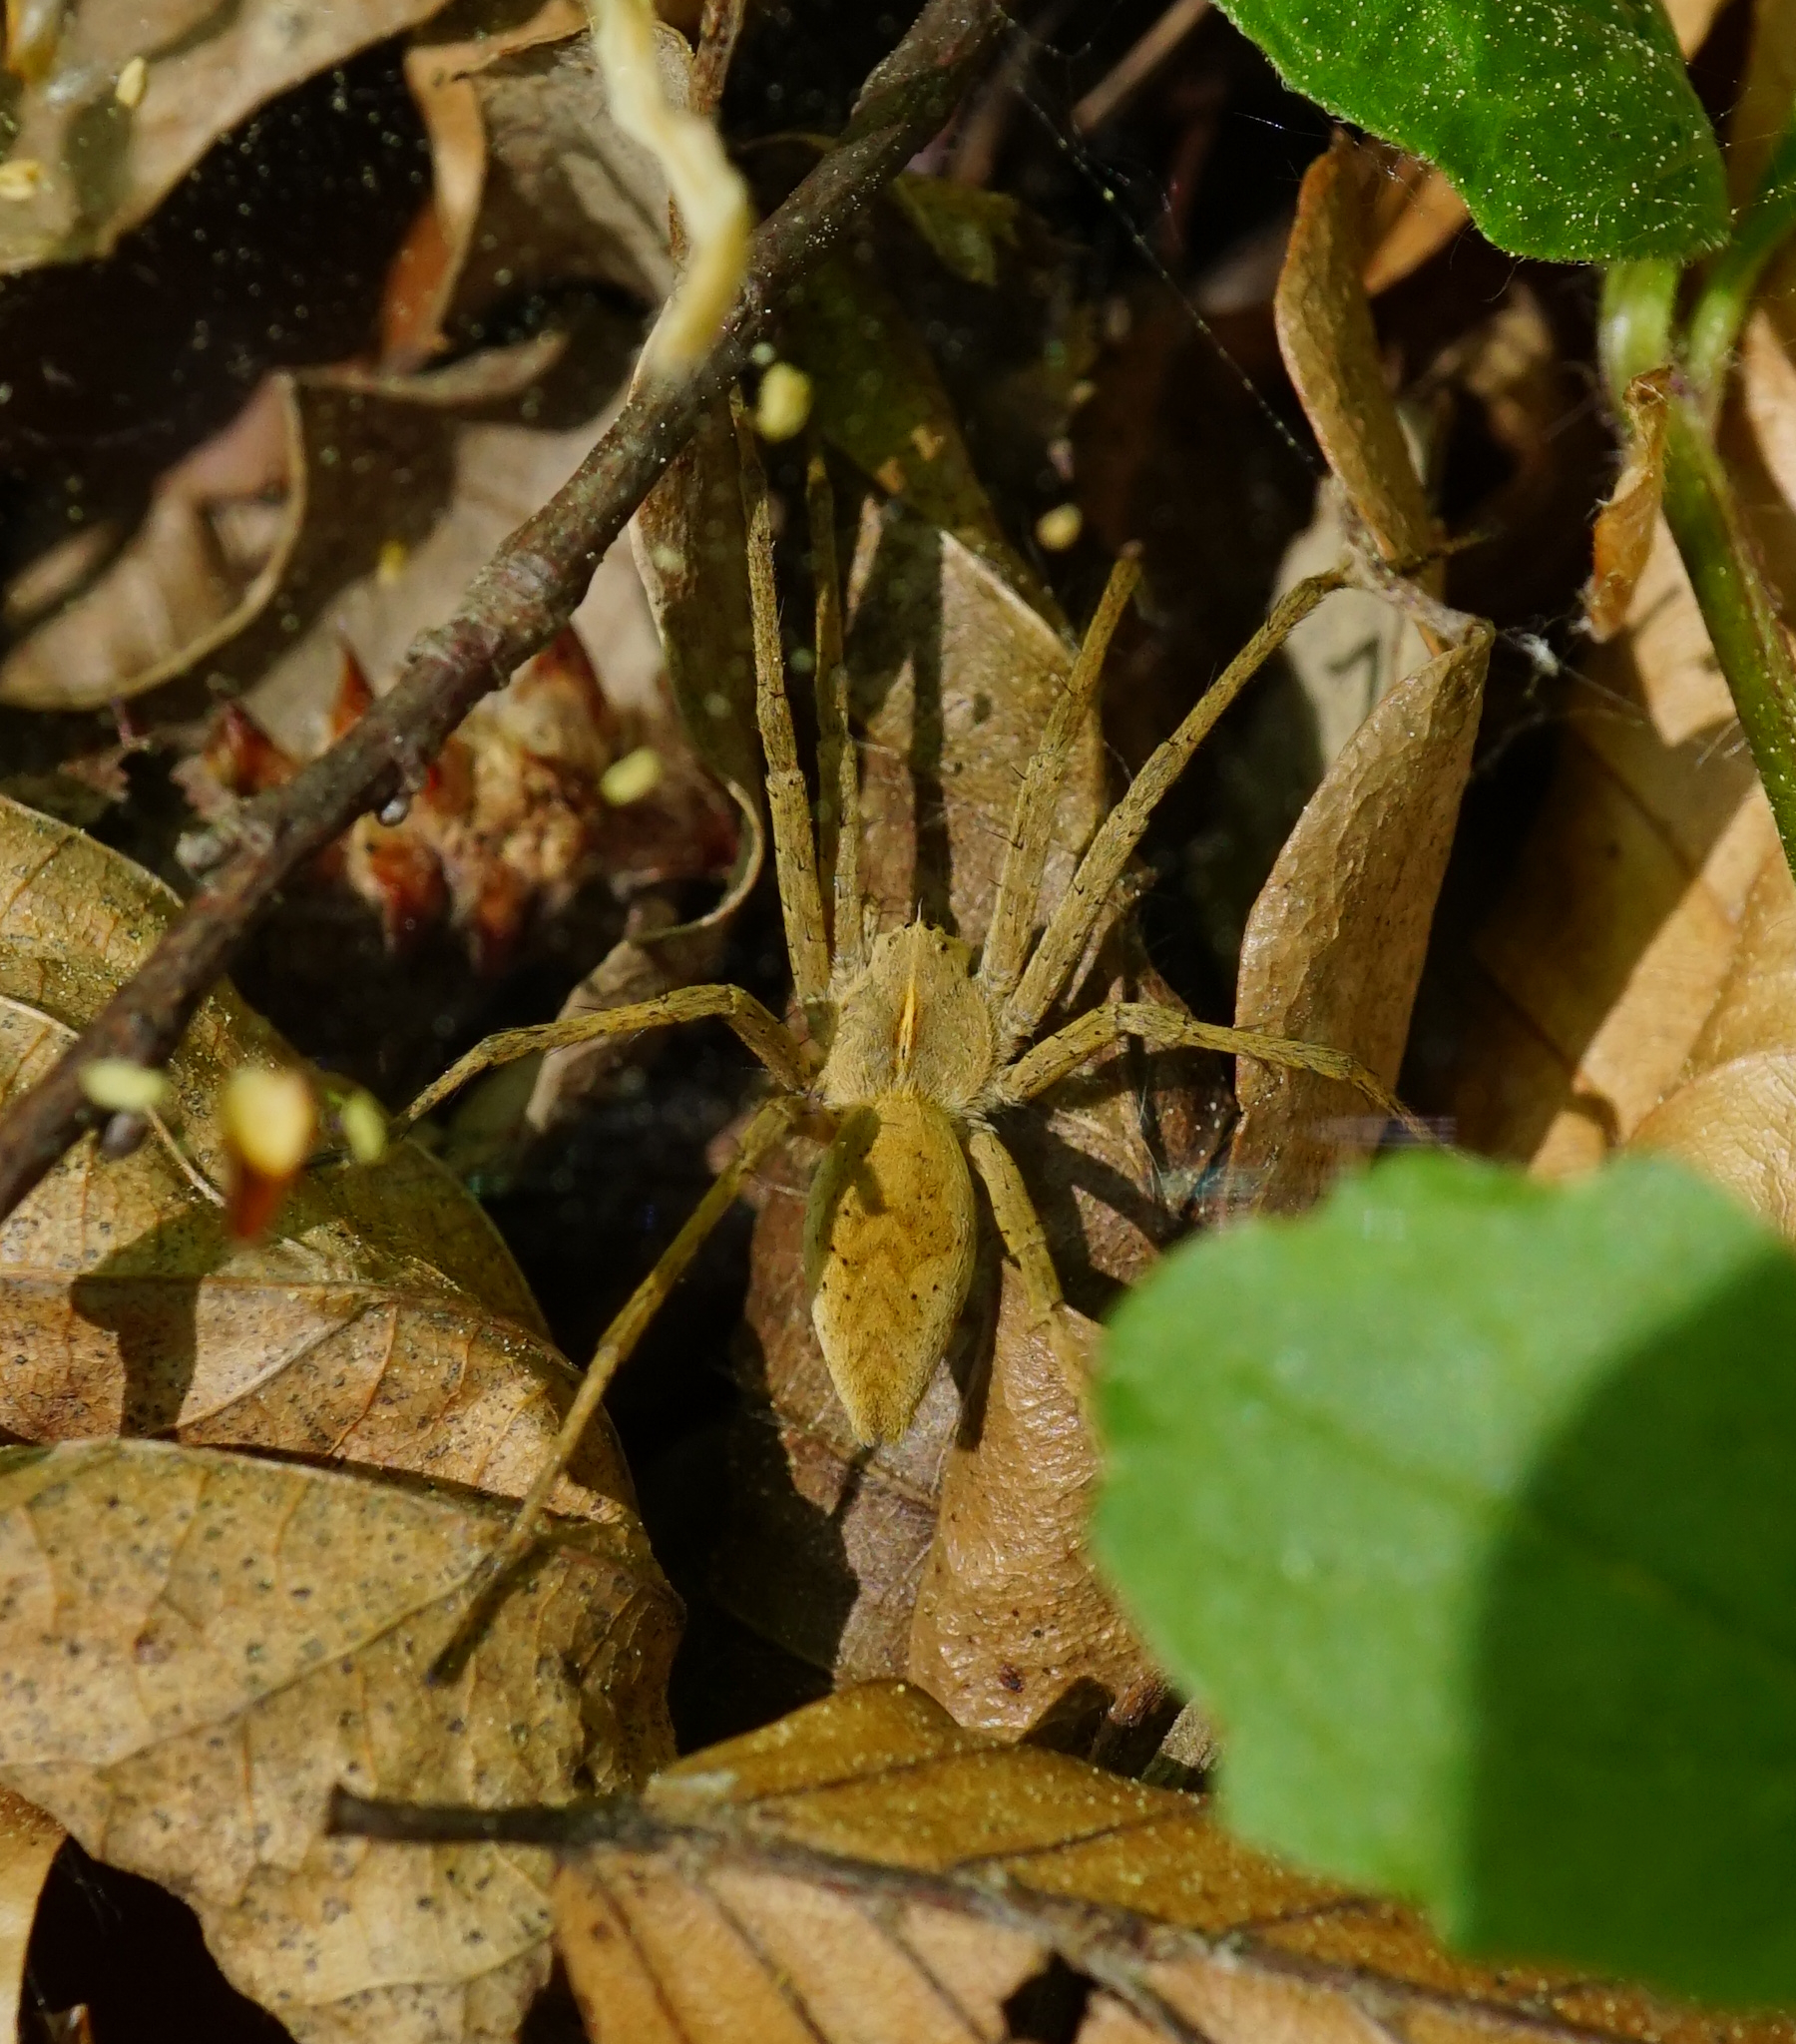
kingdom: Animalia
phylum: Arthropoda
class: Arachnida
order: Araneae
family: Pisauridae
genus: Pisaura
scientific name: Pisaura mirabilis
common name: Tent spider
